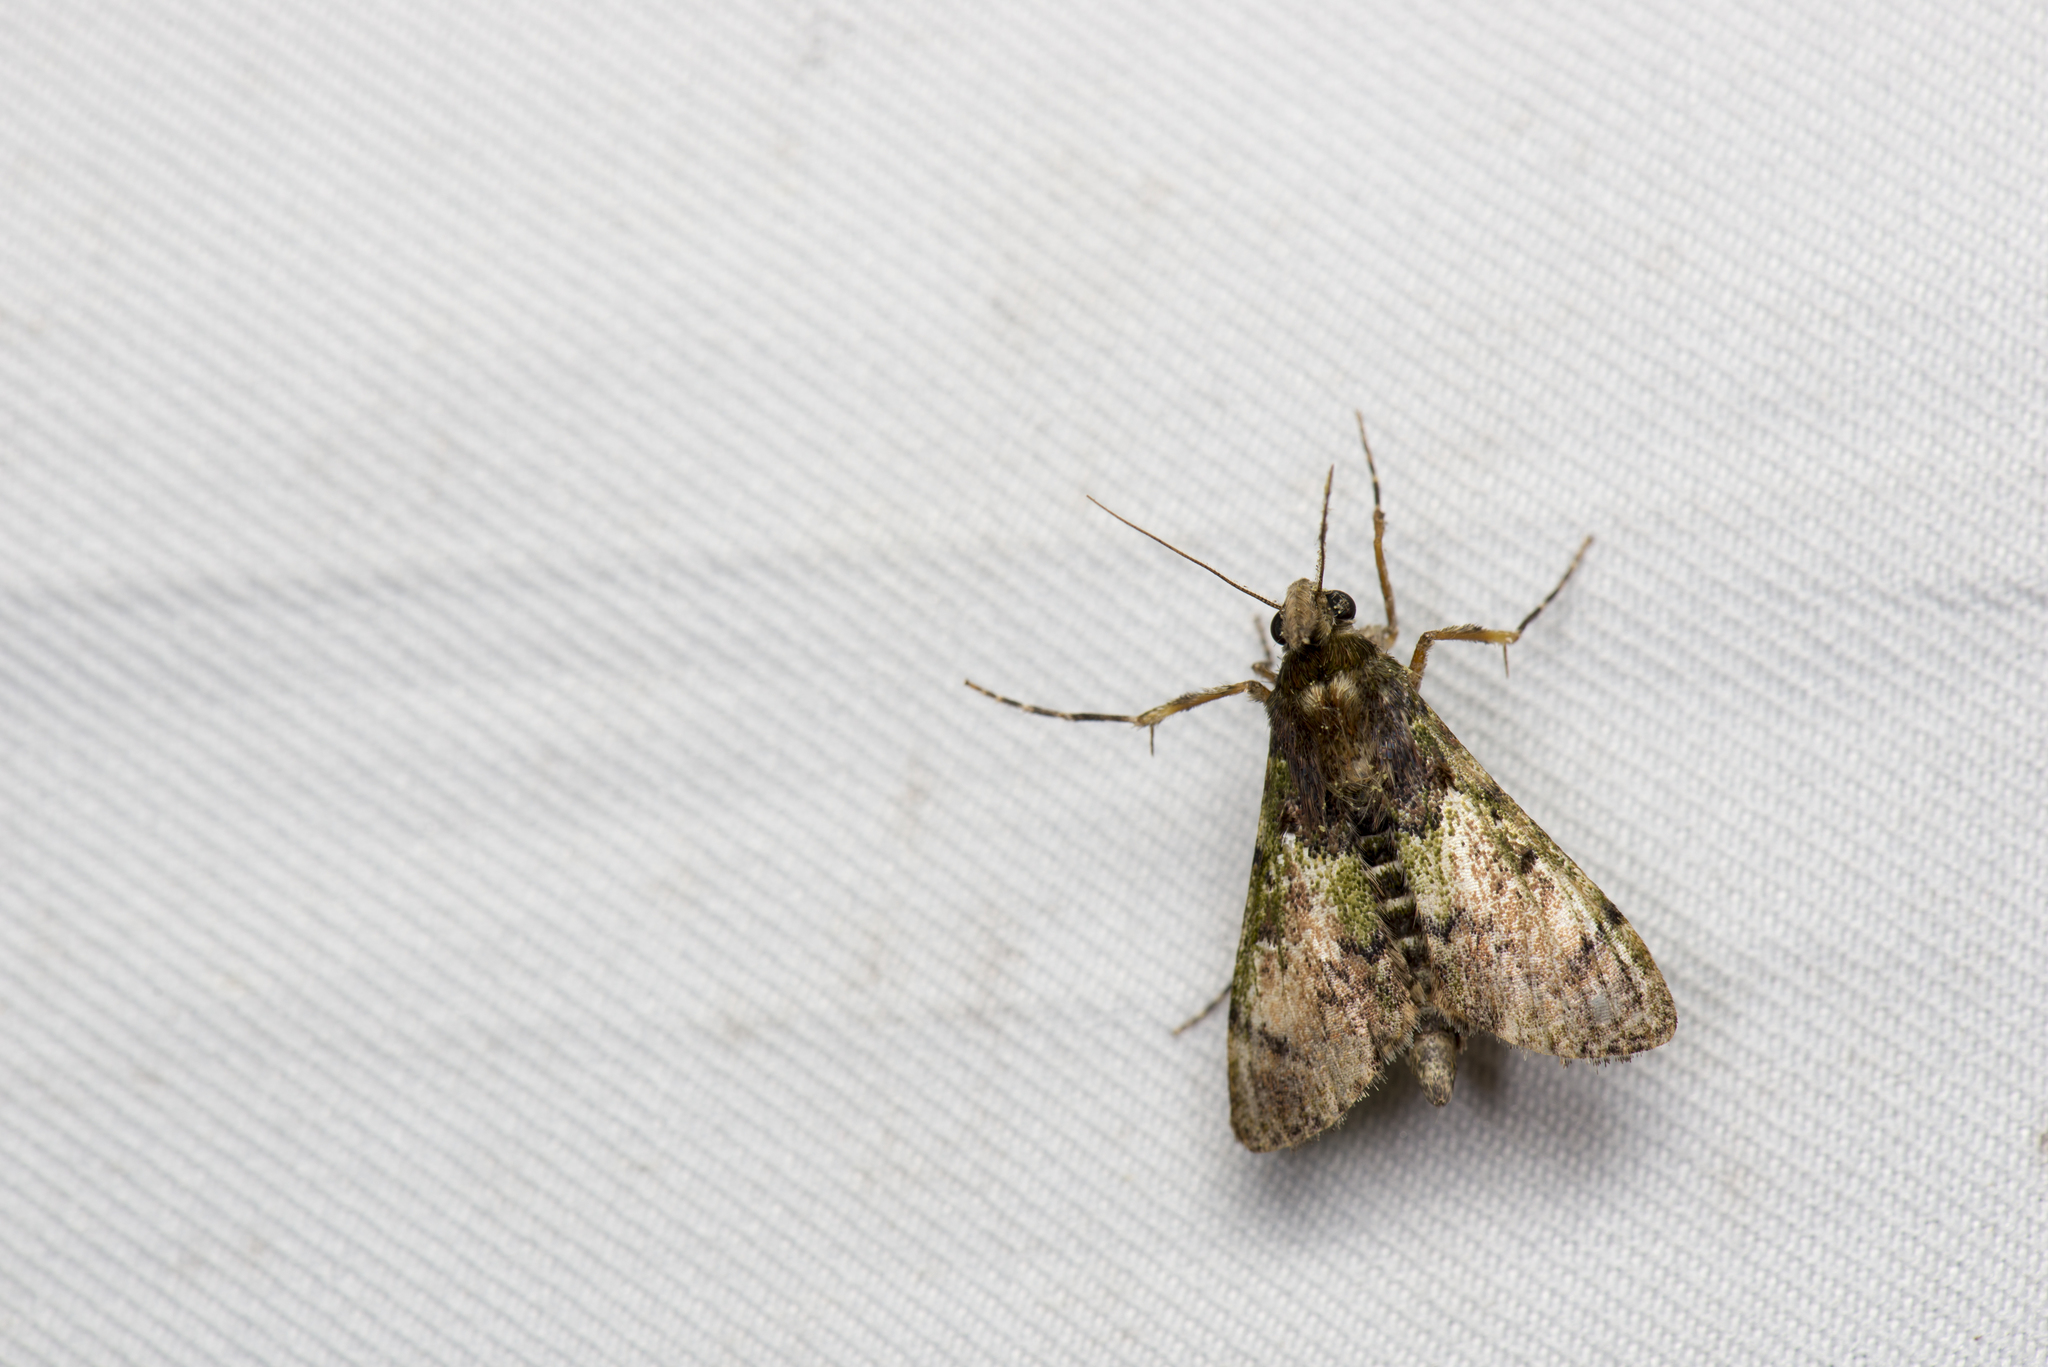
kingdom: Animalia
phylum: Arthropoda
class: Insecta
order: Lepidoptera
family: Pyralidae
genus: Teliphasa
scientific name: Teliphasa nubilosa
